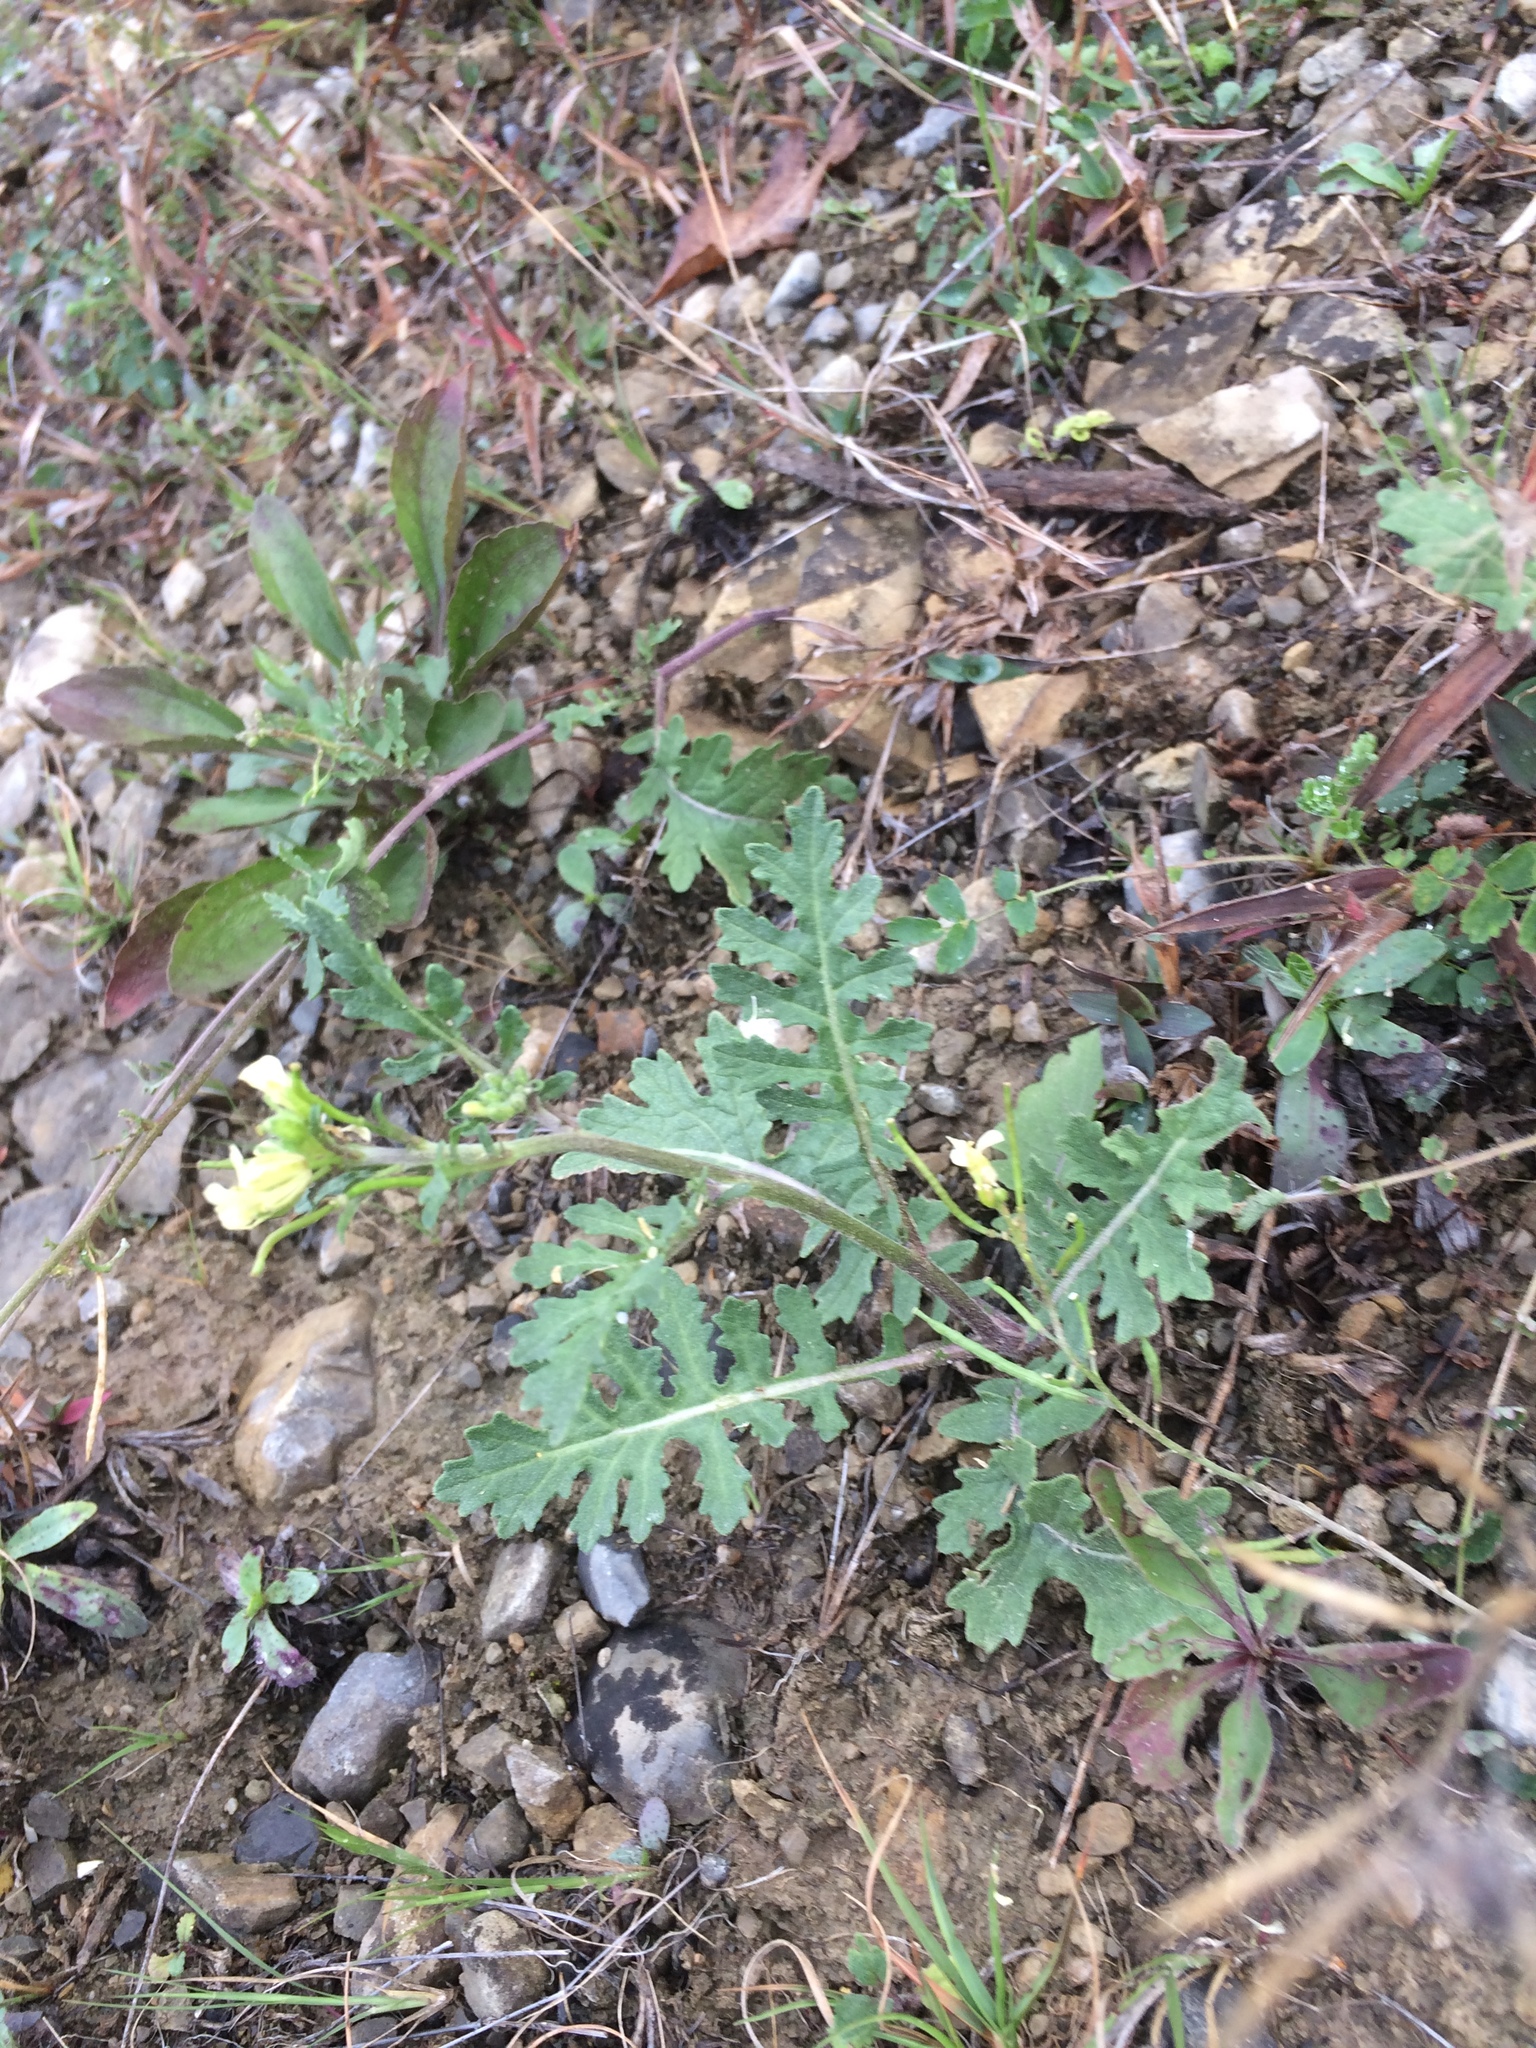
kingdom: Plantae
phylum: Tracheophyta
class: Magnoliopsida
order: Brassicales
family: Brassicaceae
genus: Erucastrum
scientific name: Erucastrum gallicum
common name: Hairy rocket
